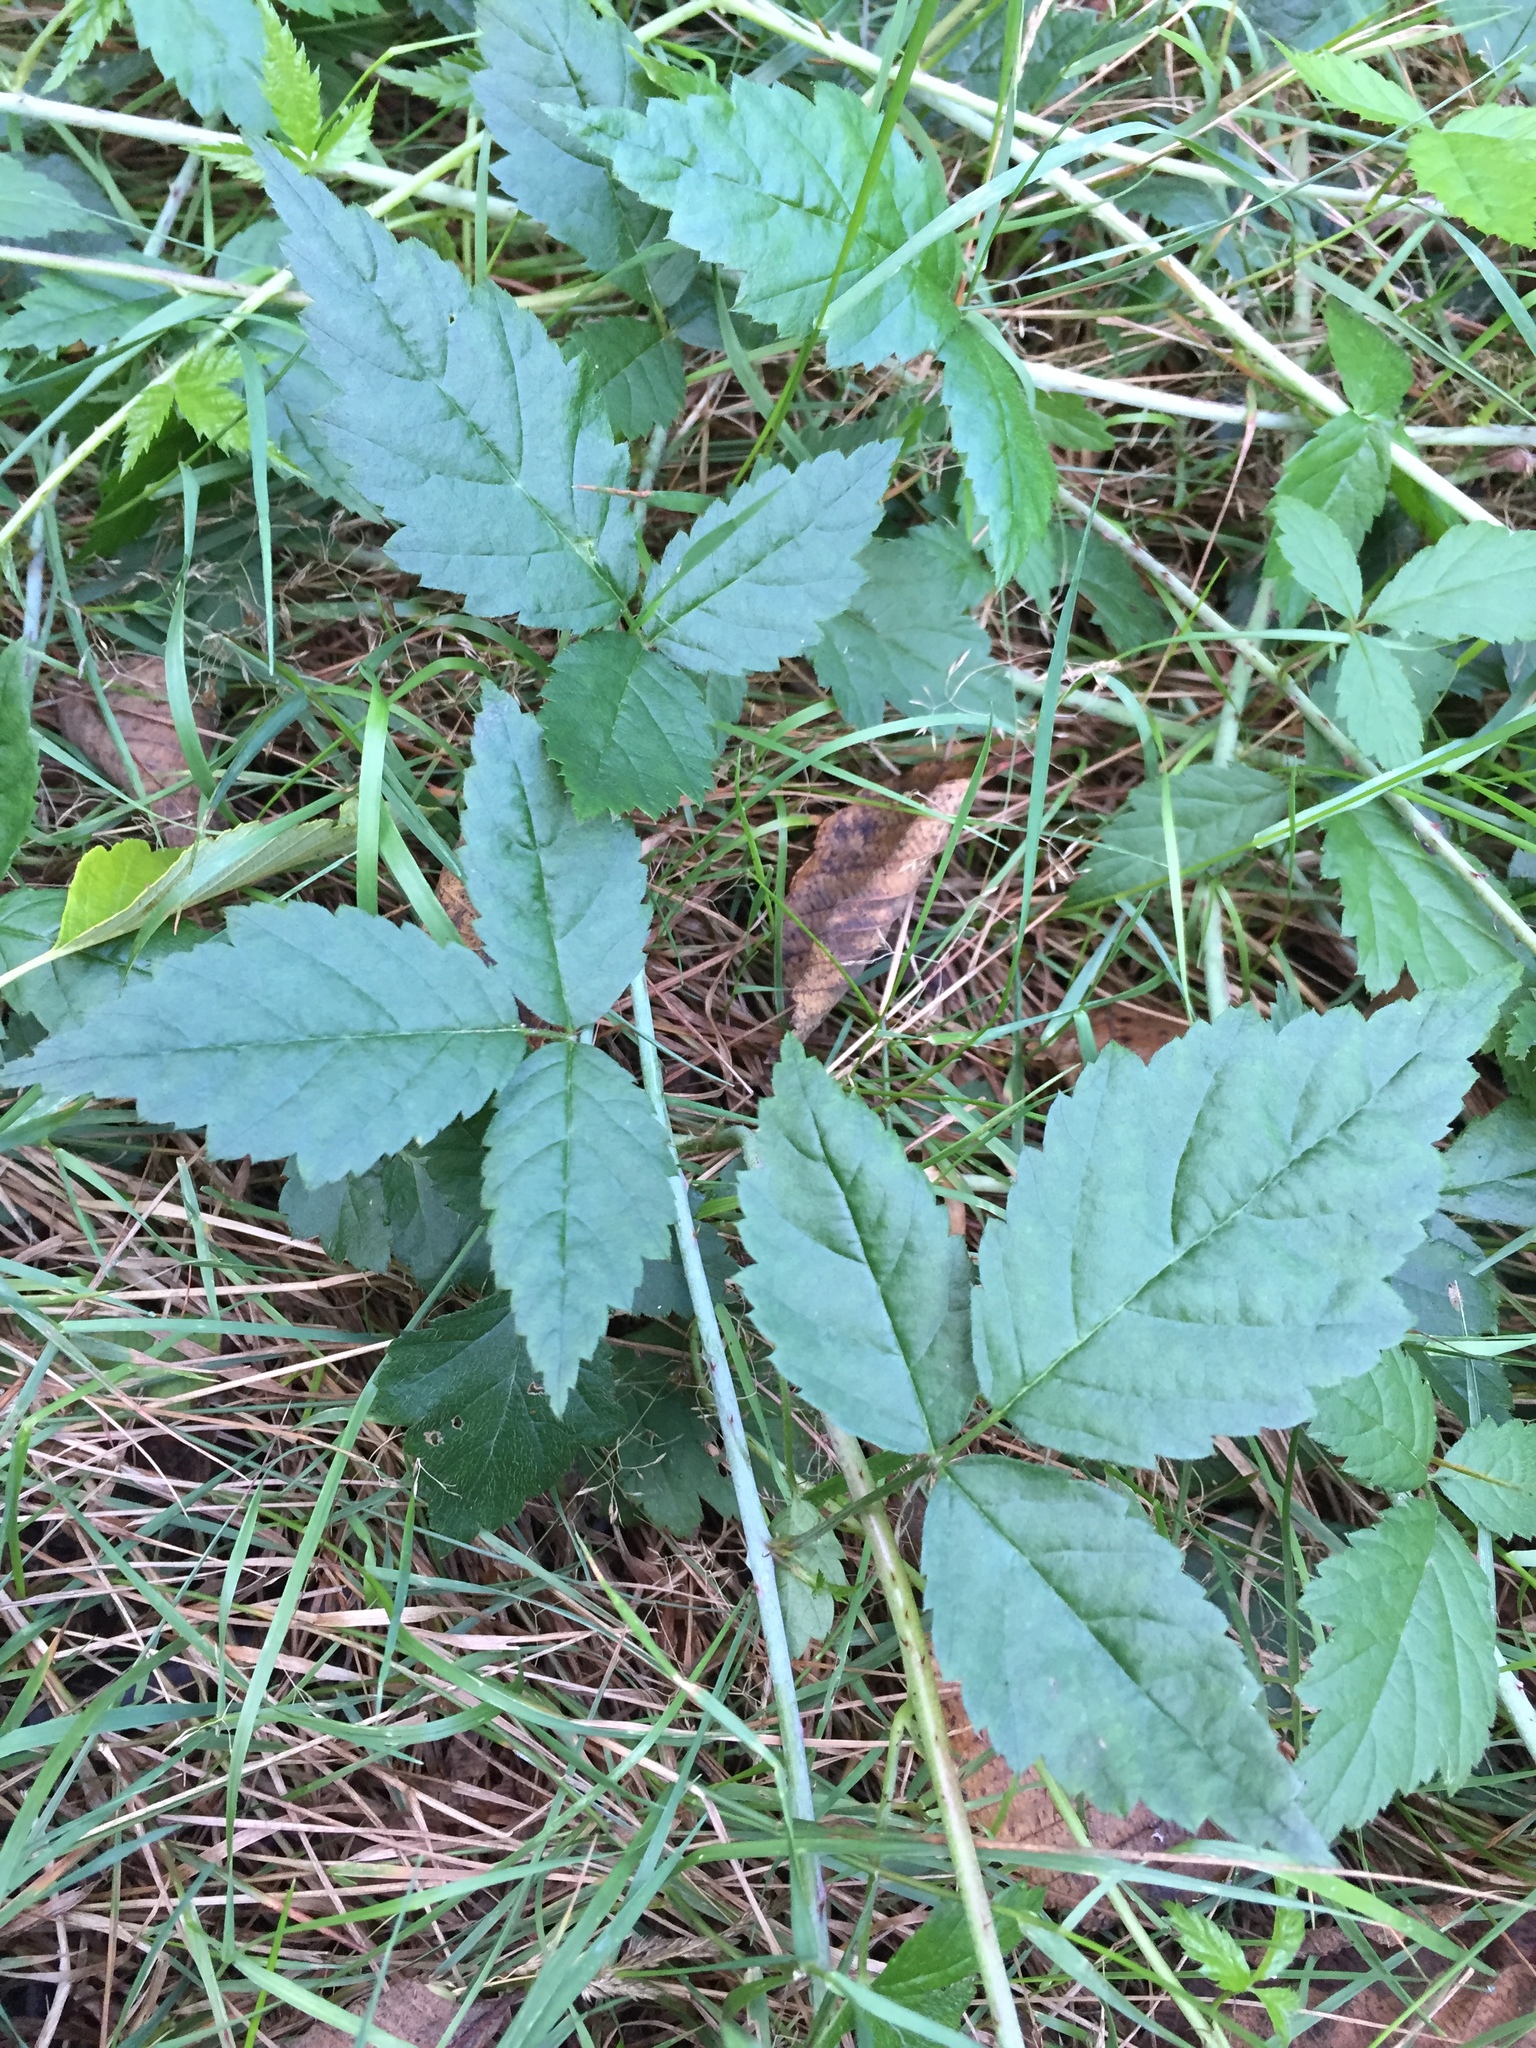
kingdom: Plantae
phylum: Tracheophyta
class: Magnoliopsida
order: Rosales
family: Rosaceae
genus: Rubus
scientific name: Rubus ursinus
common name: Pacific blackberry
